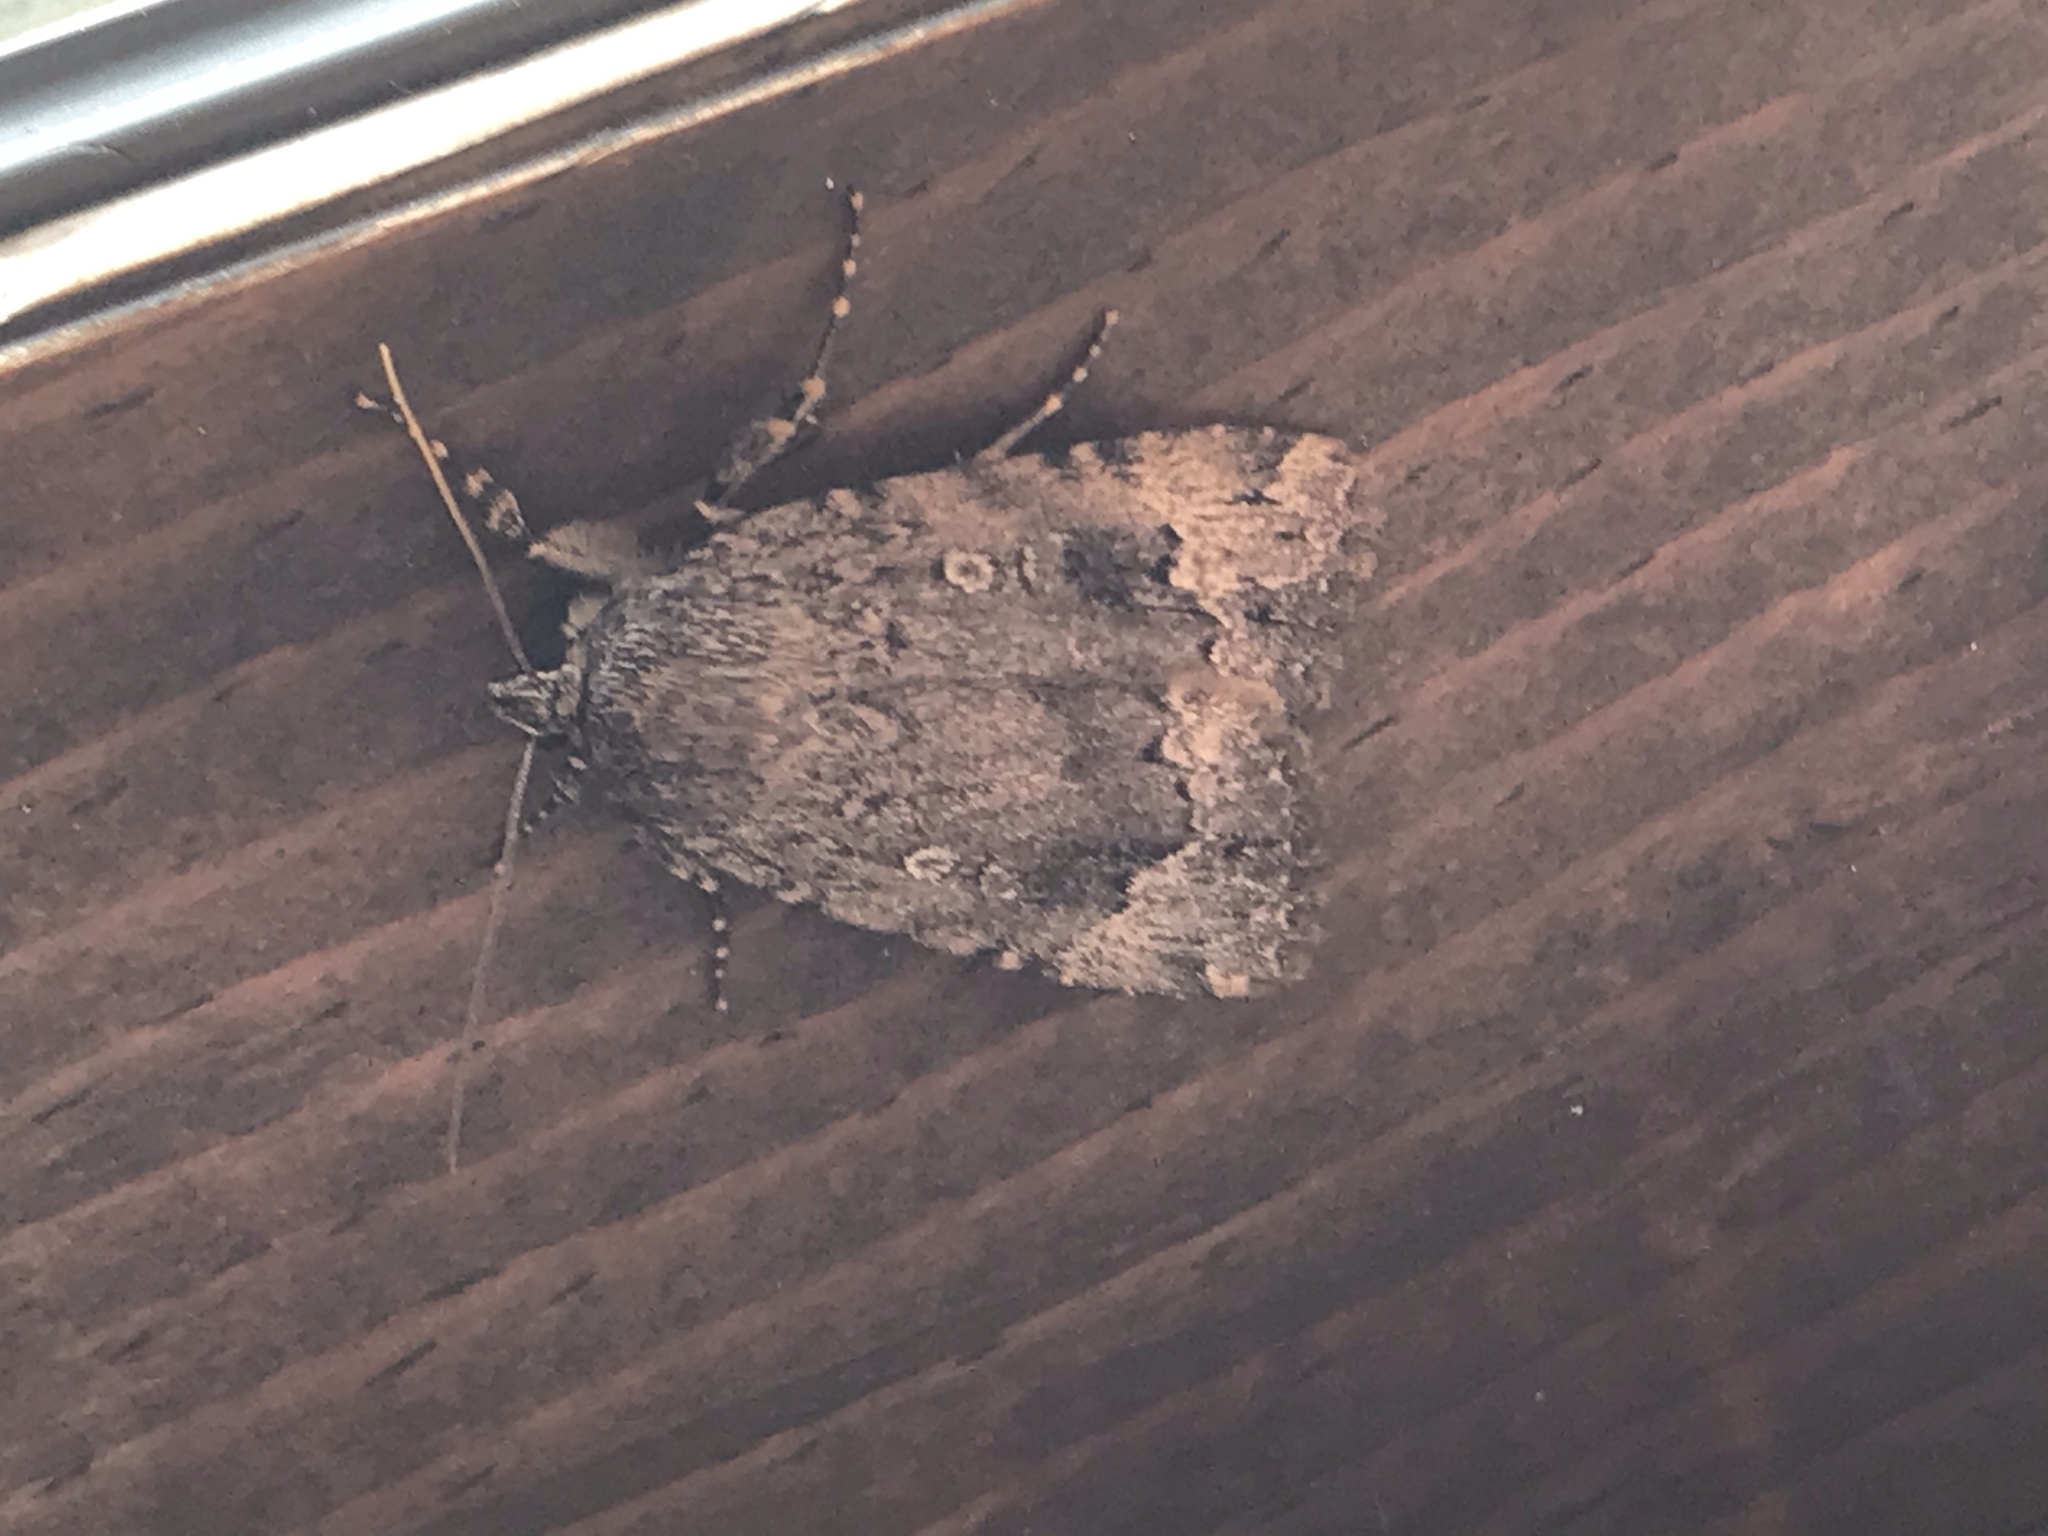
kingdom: Animalia
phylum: Arthropoda
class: Insecta
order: Lepidoptera
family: Noctuidae
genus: Amphipyra
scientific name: Amphipyra pyramidoides
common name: American copper underwing
